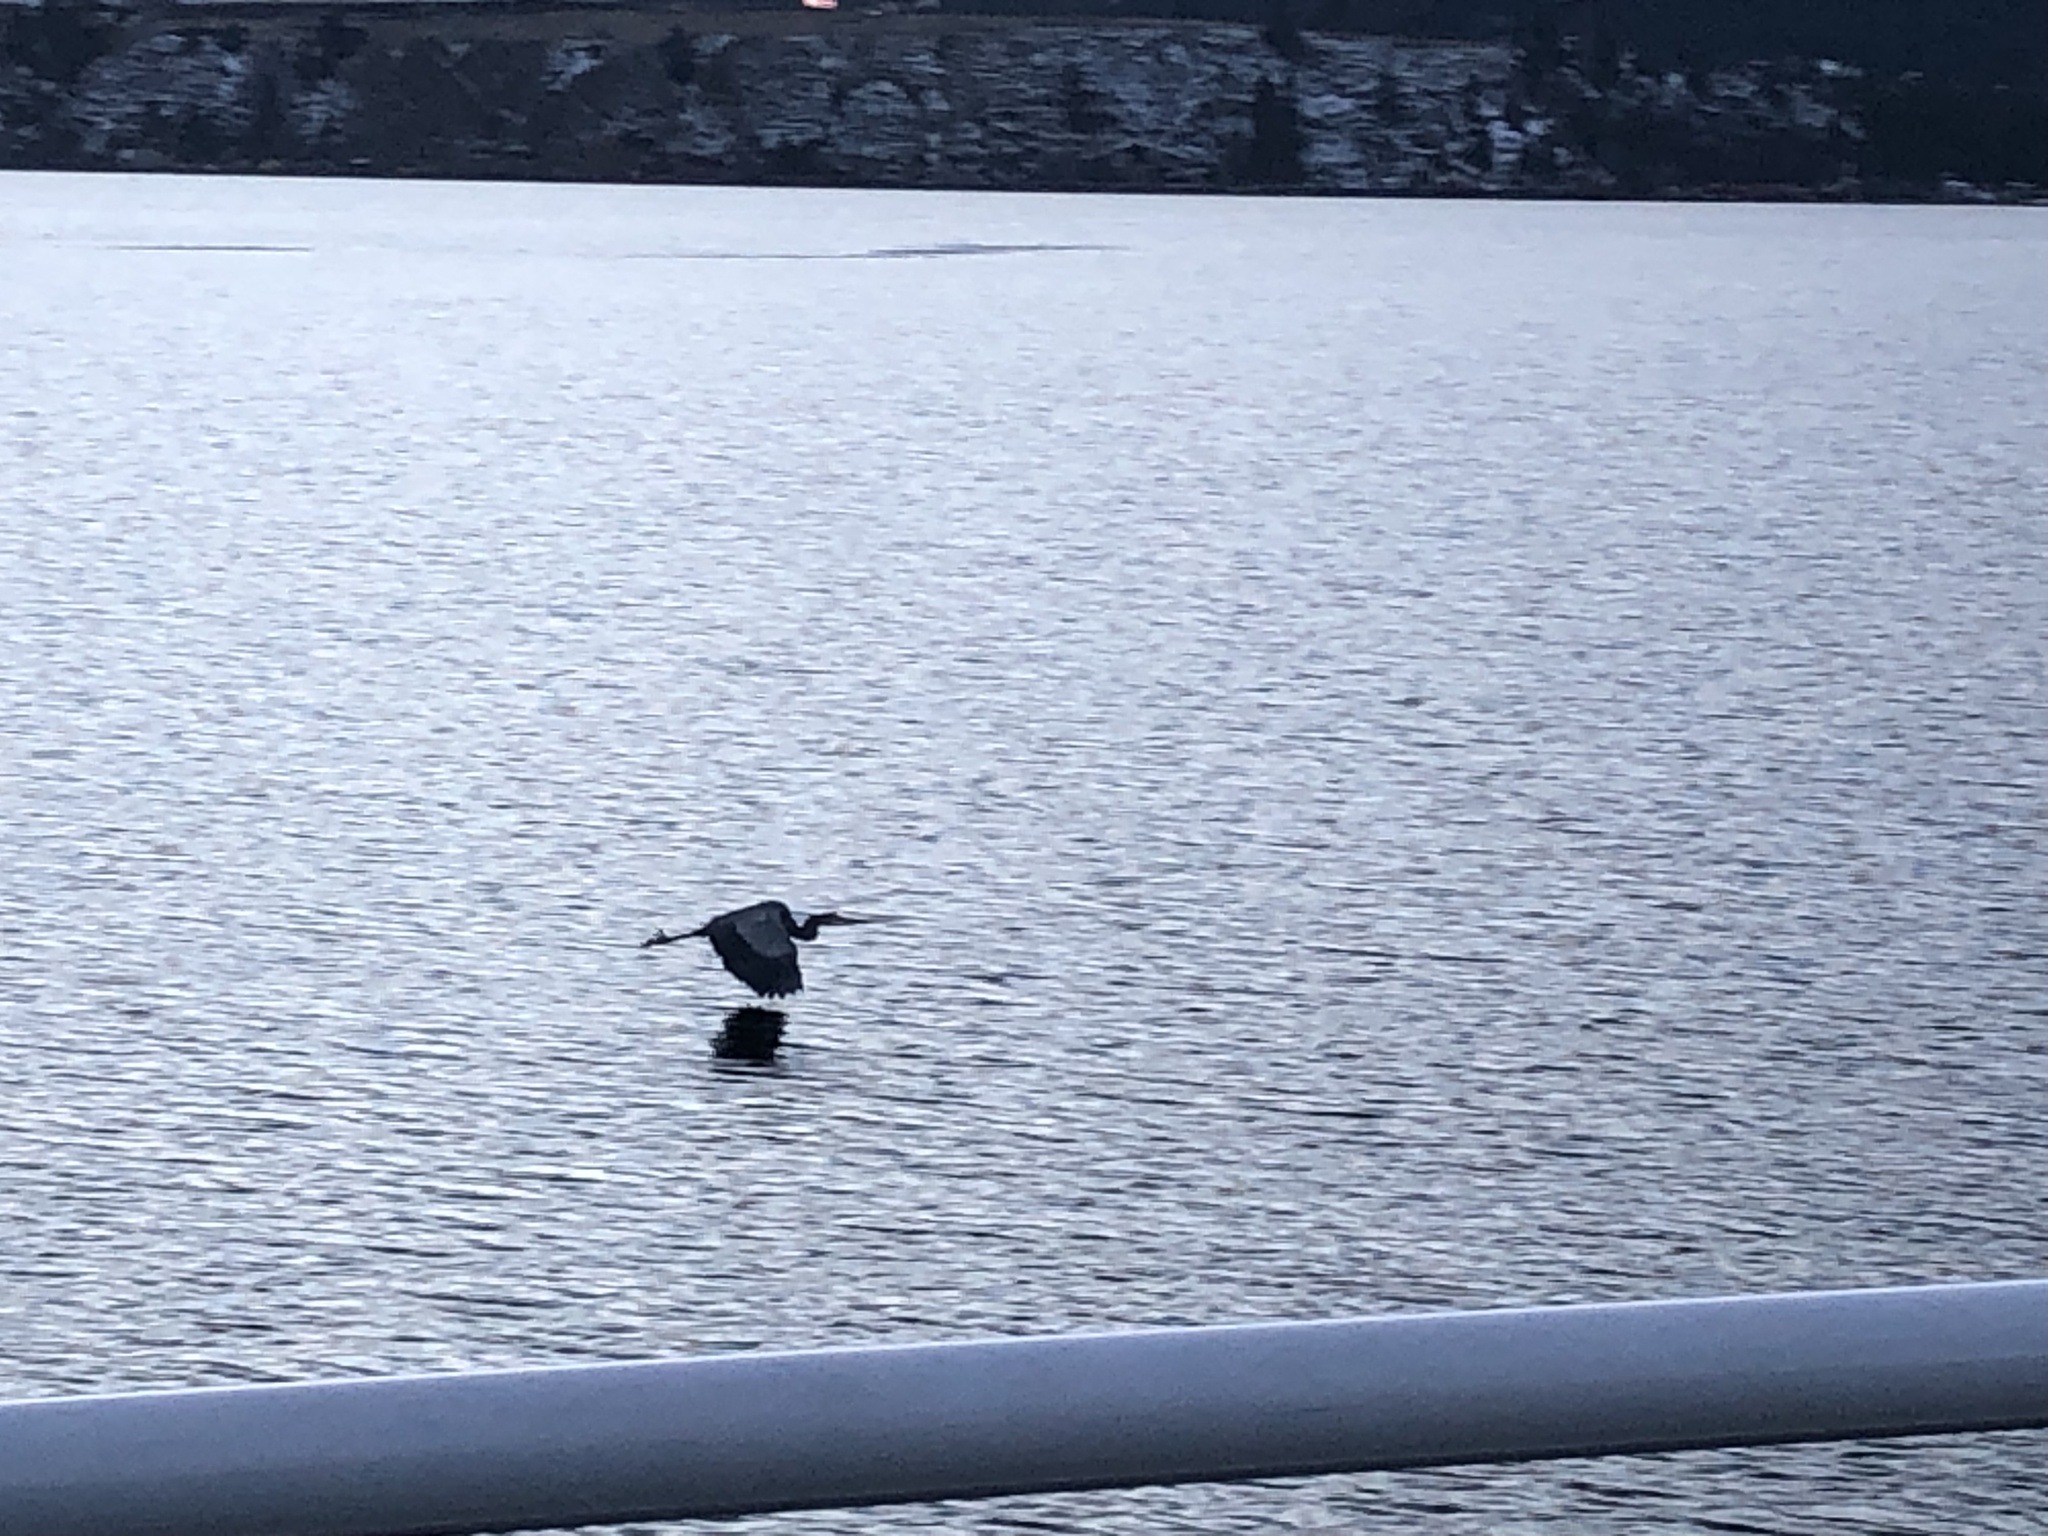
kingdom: Animalia
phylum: Chordata
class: Aves
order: Pelecaniformes
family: Ardeidae
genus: Ardea
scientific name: Ardea herodias
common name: Great blue heron
